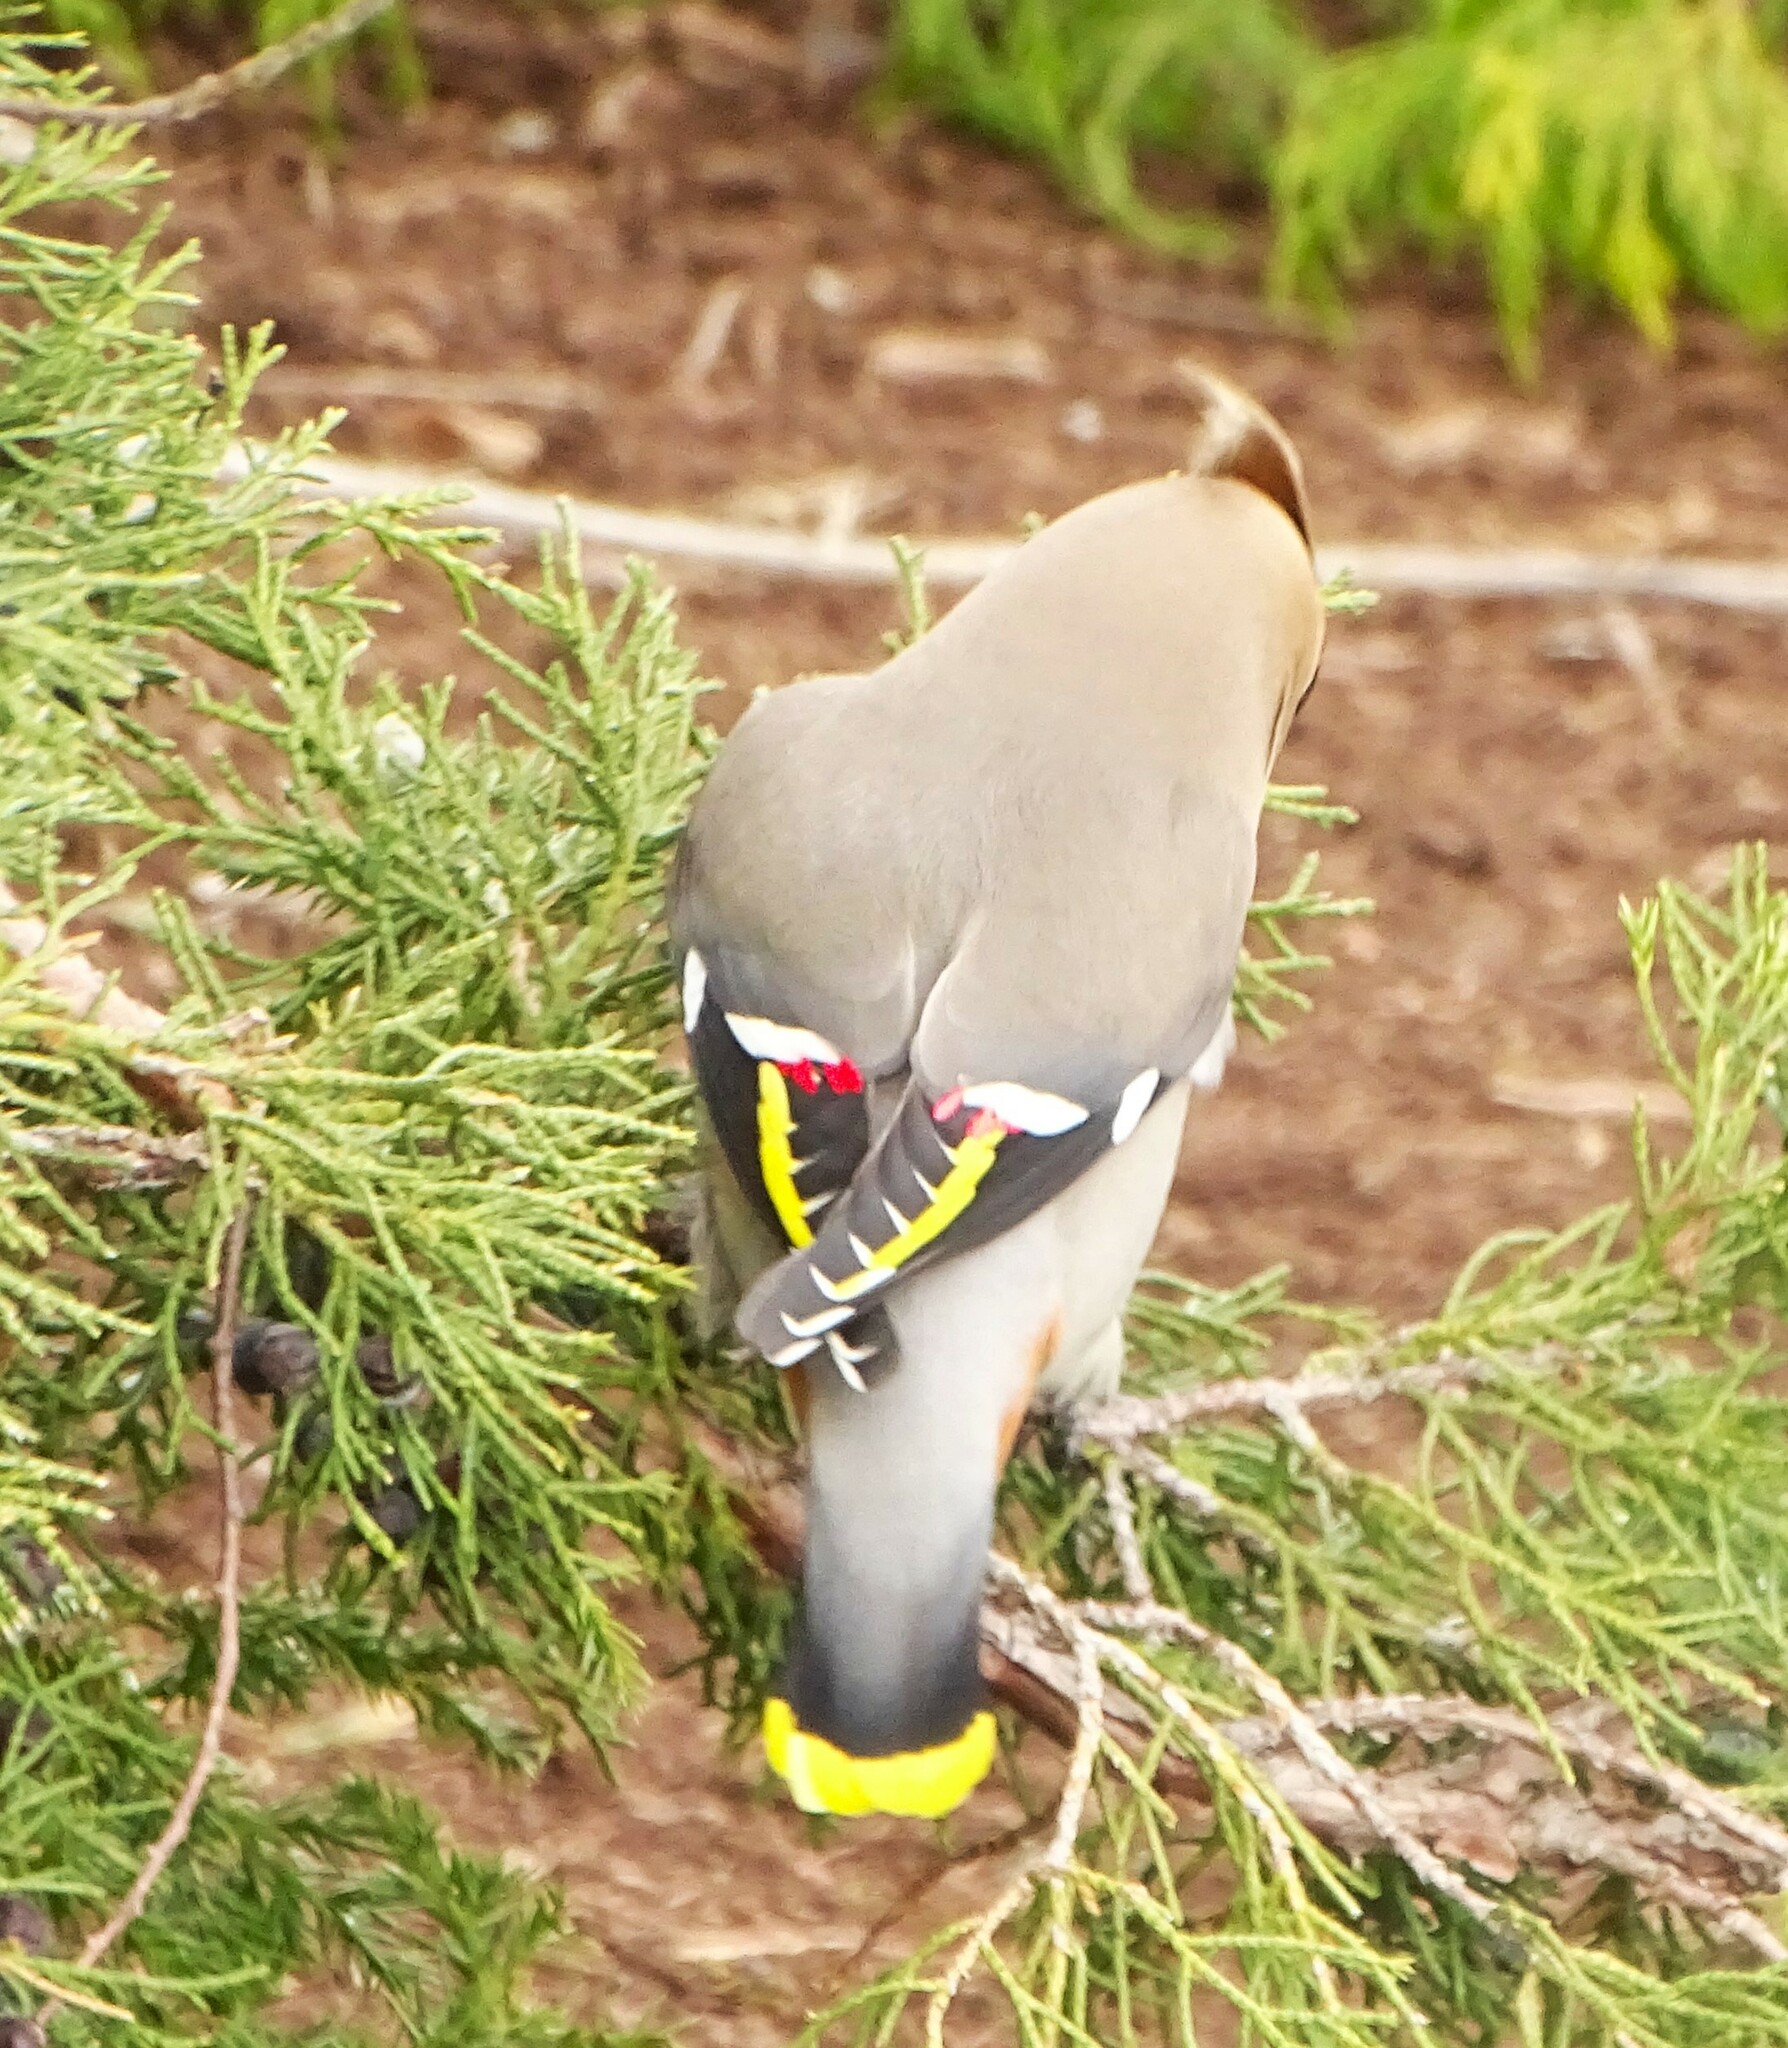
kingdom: Animalia
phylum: Chordata
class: Aves
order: Passeriformes
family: Bombycillidae
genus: Bombycilla
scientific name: Bombycilla garrulus
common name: Bohemian waxwing
